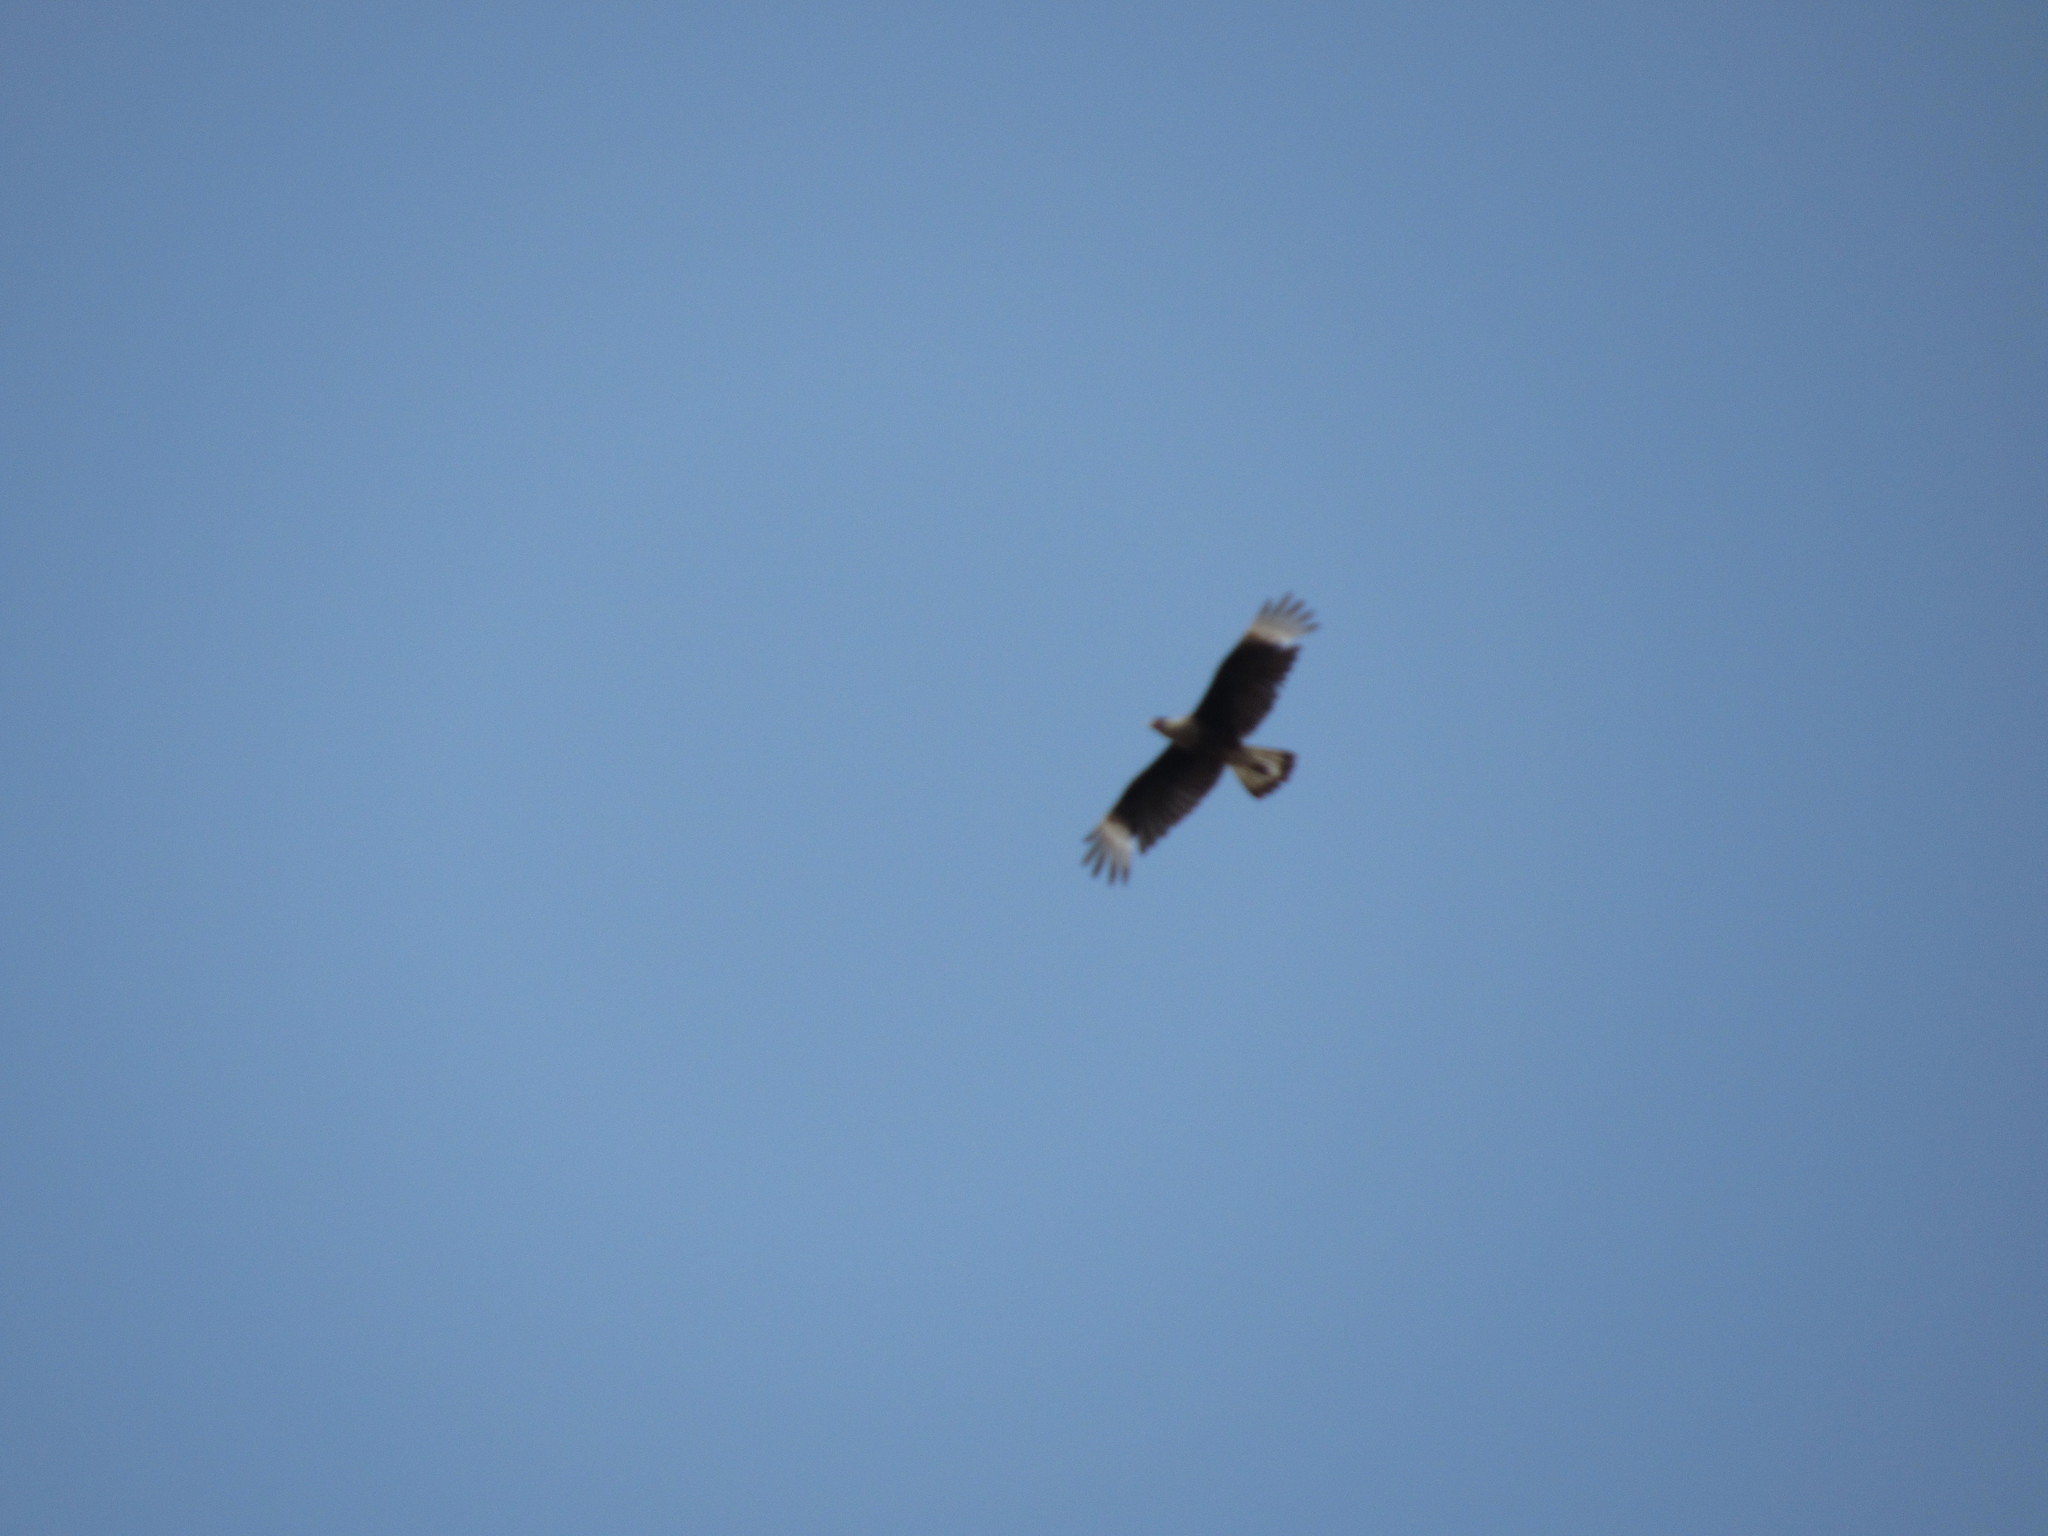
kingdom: Animalia
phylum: Chordata
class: Aves
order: Falconiformes
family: Falconidae
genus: Caracara
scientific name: Caracara plancus
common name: Southern caracara
